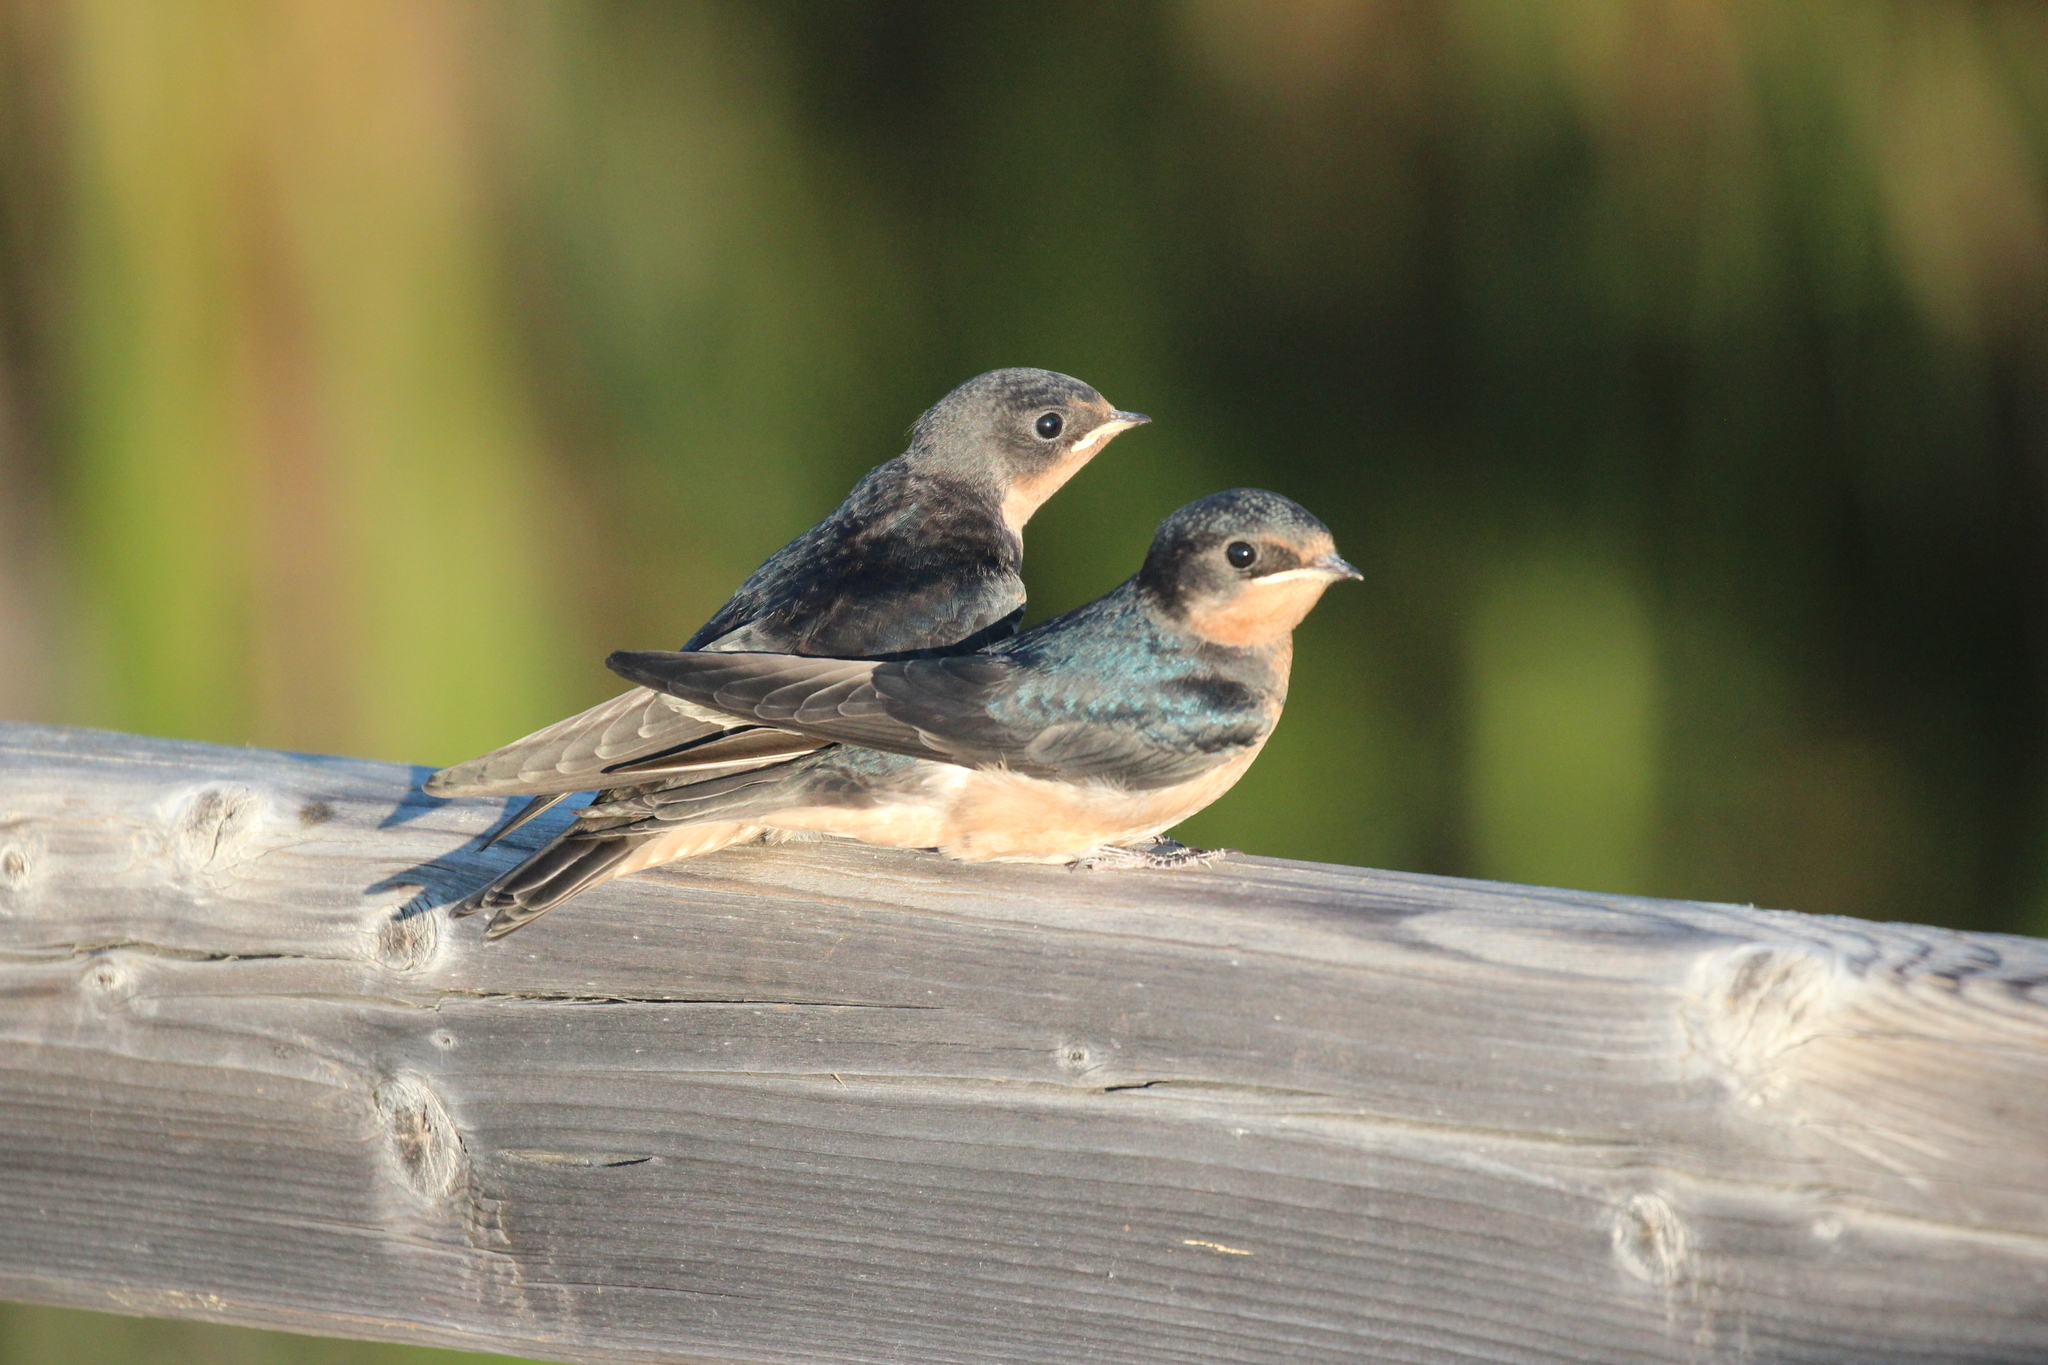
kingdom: Animalia
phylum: Chordata
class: Aves
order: Passeriformes
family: Hirundinidae
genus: Hirundo
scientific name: Hirundo rustica
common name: Barn swallow
